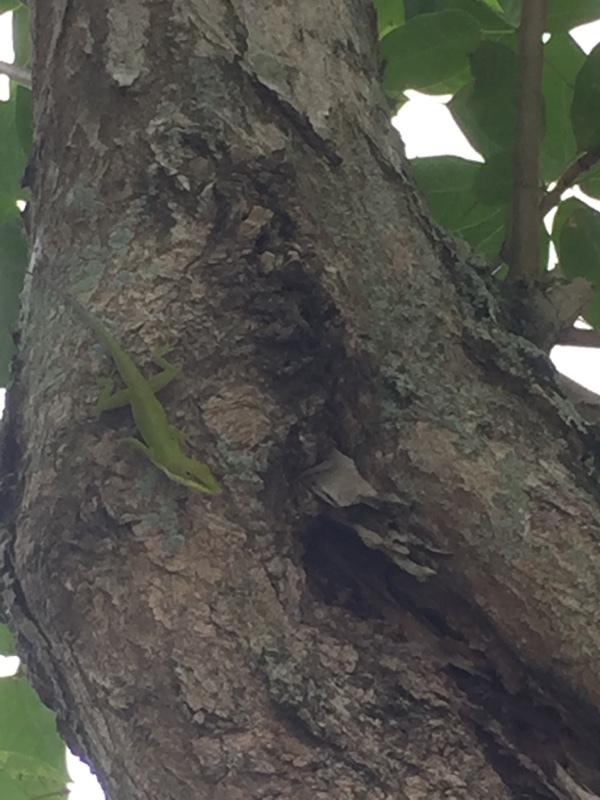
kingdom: Animalia
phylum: Chordata
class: Squamata
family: Dactyloidae
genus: Anolis
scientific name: Anolis porcatus
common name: Cuban green anole
